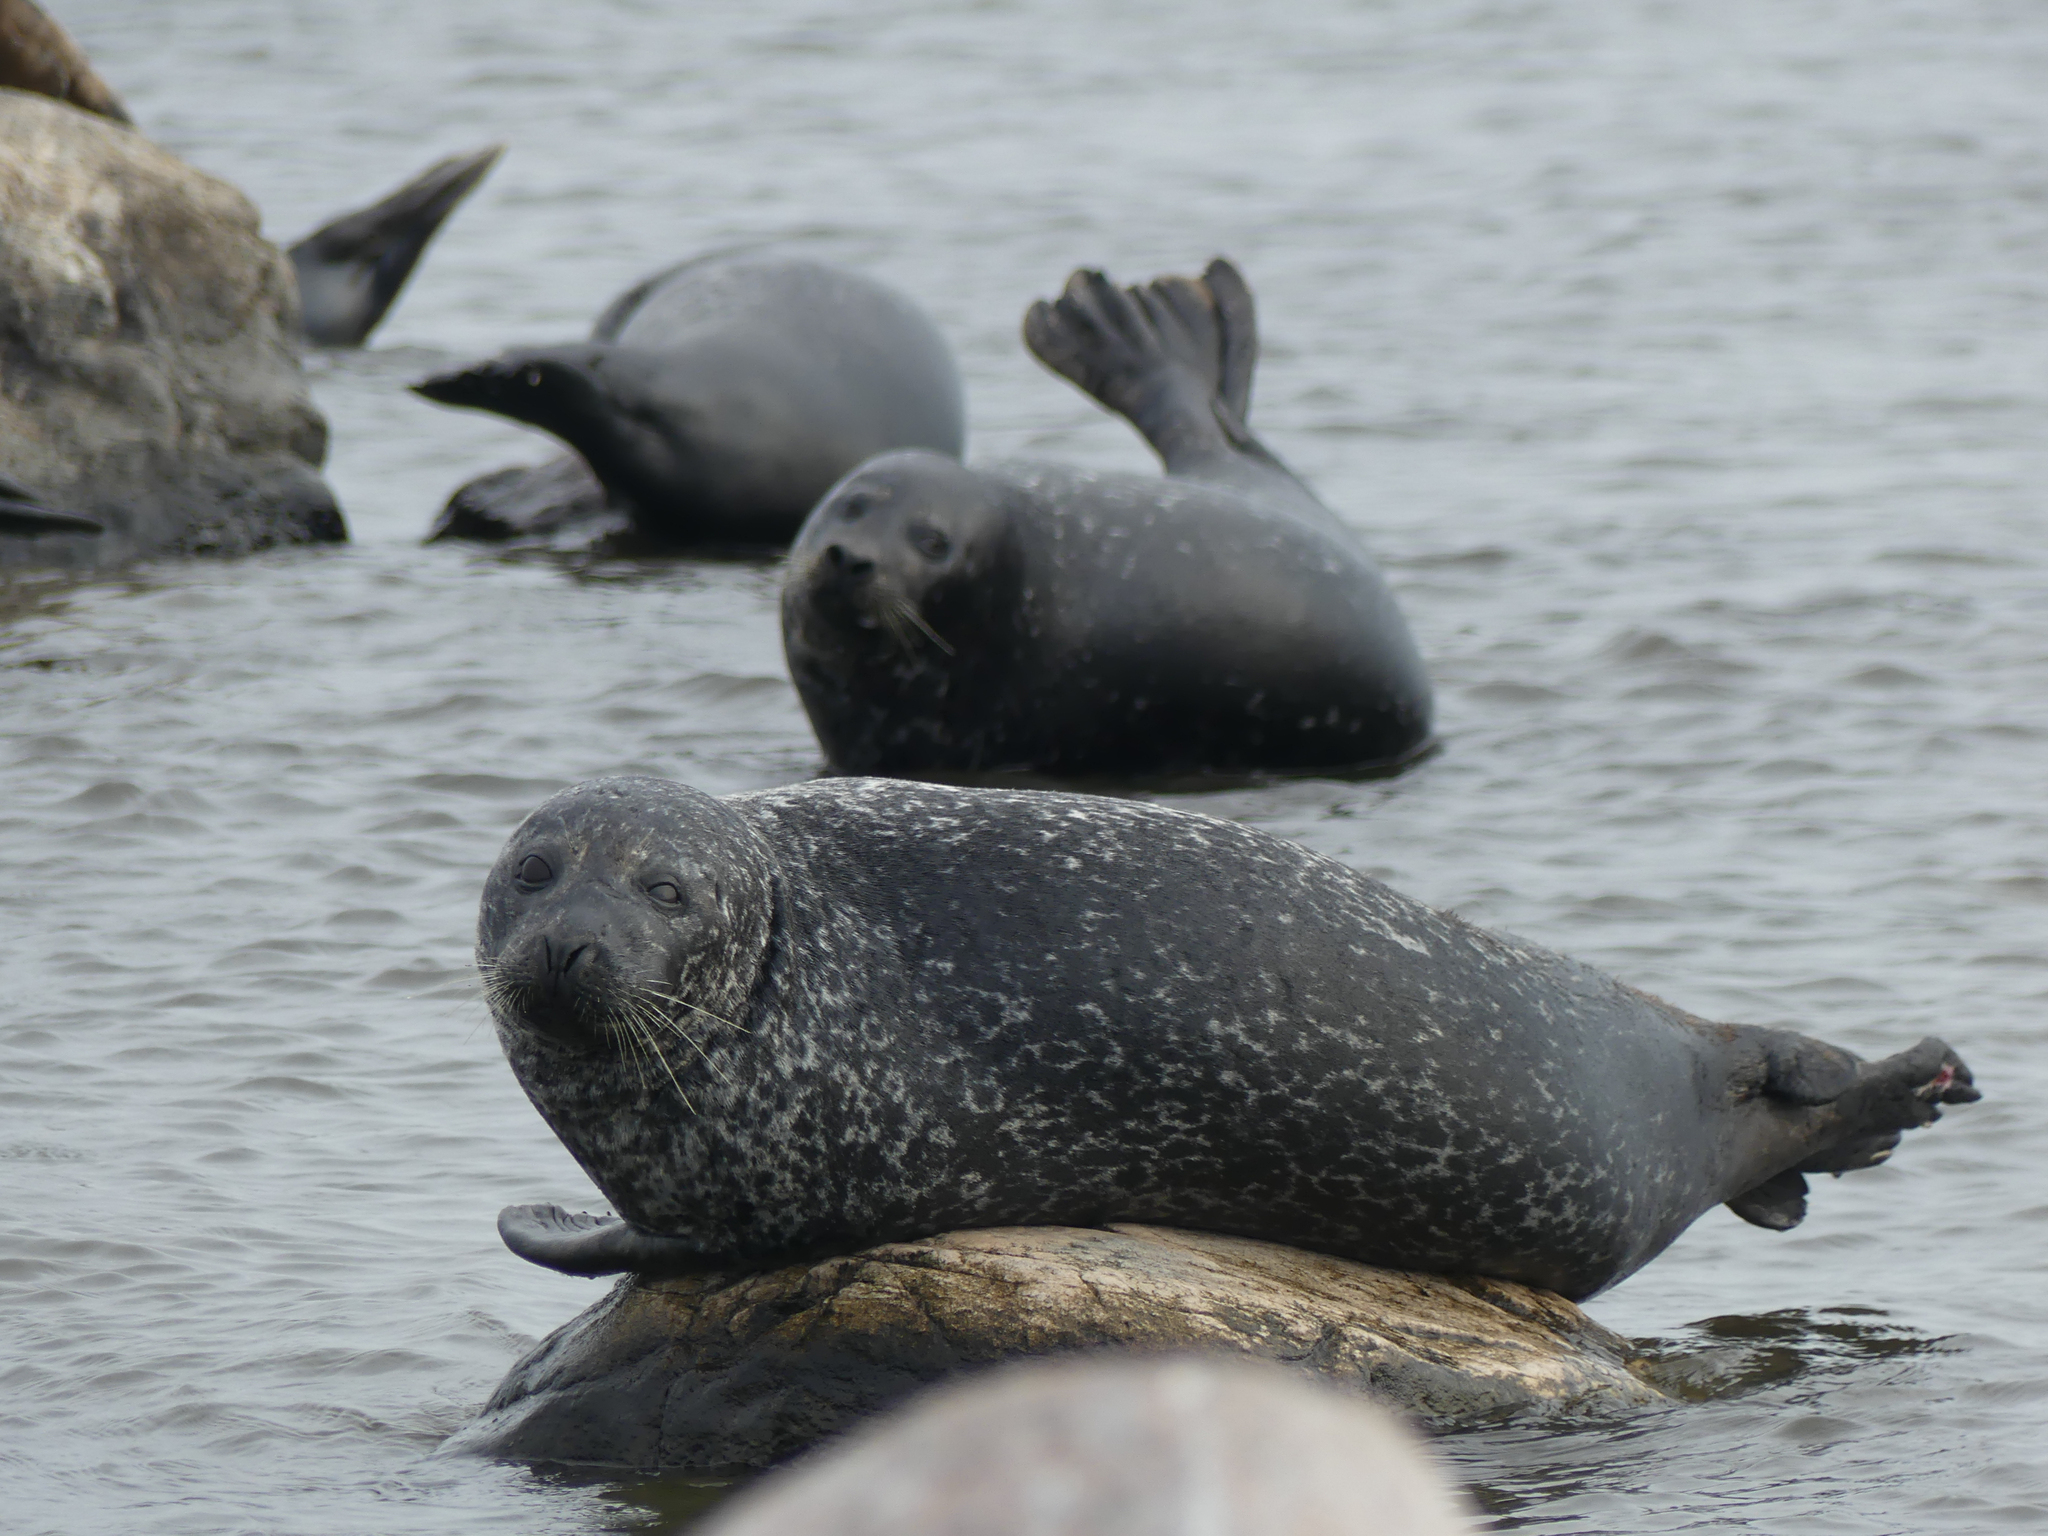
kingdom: Animalia
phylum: Chordata
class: Mammalia
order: Carnivora
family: Phocidae
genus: Phoca
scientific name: Phoca vitulina
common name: Harbor seal
